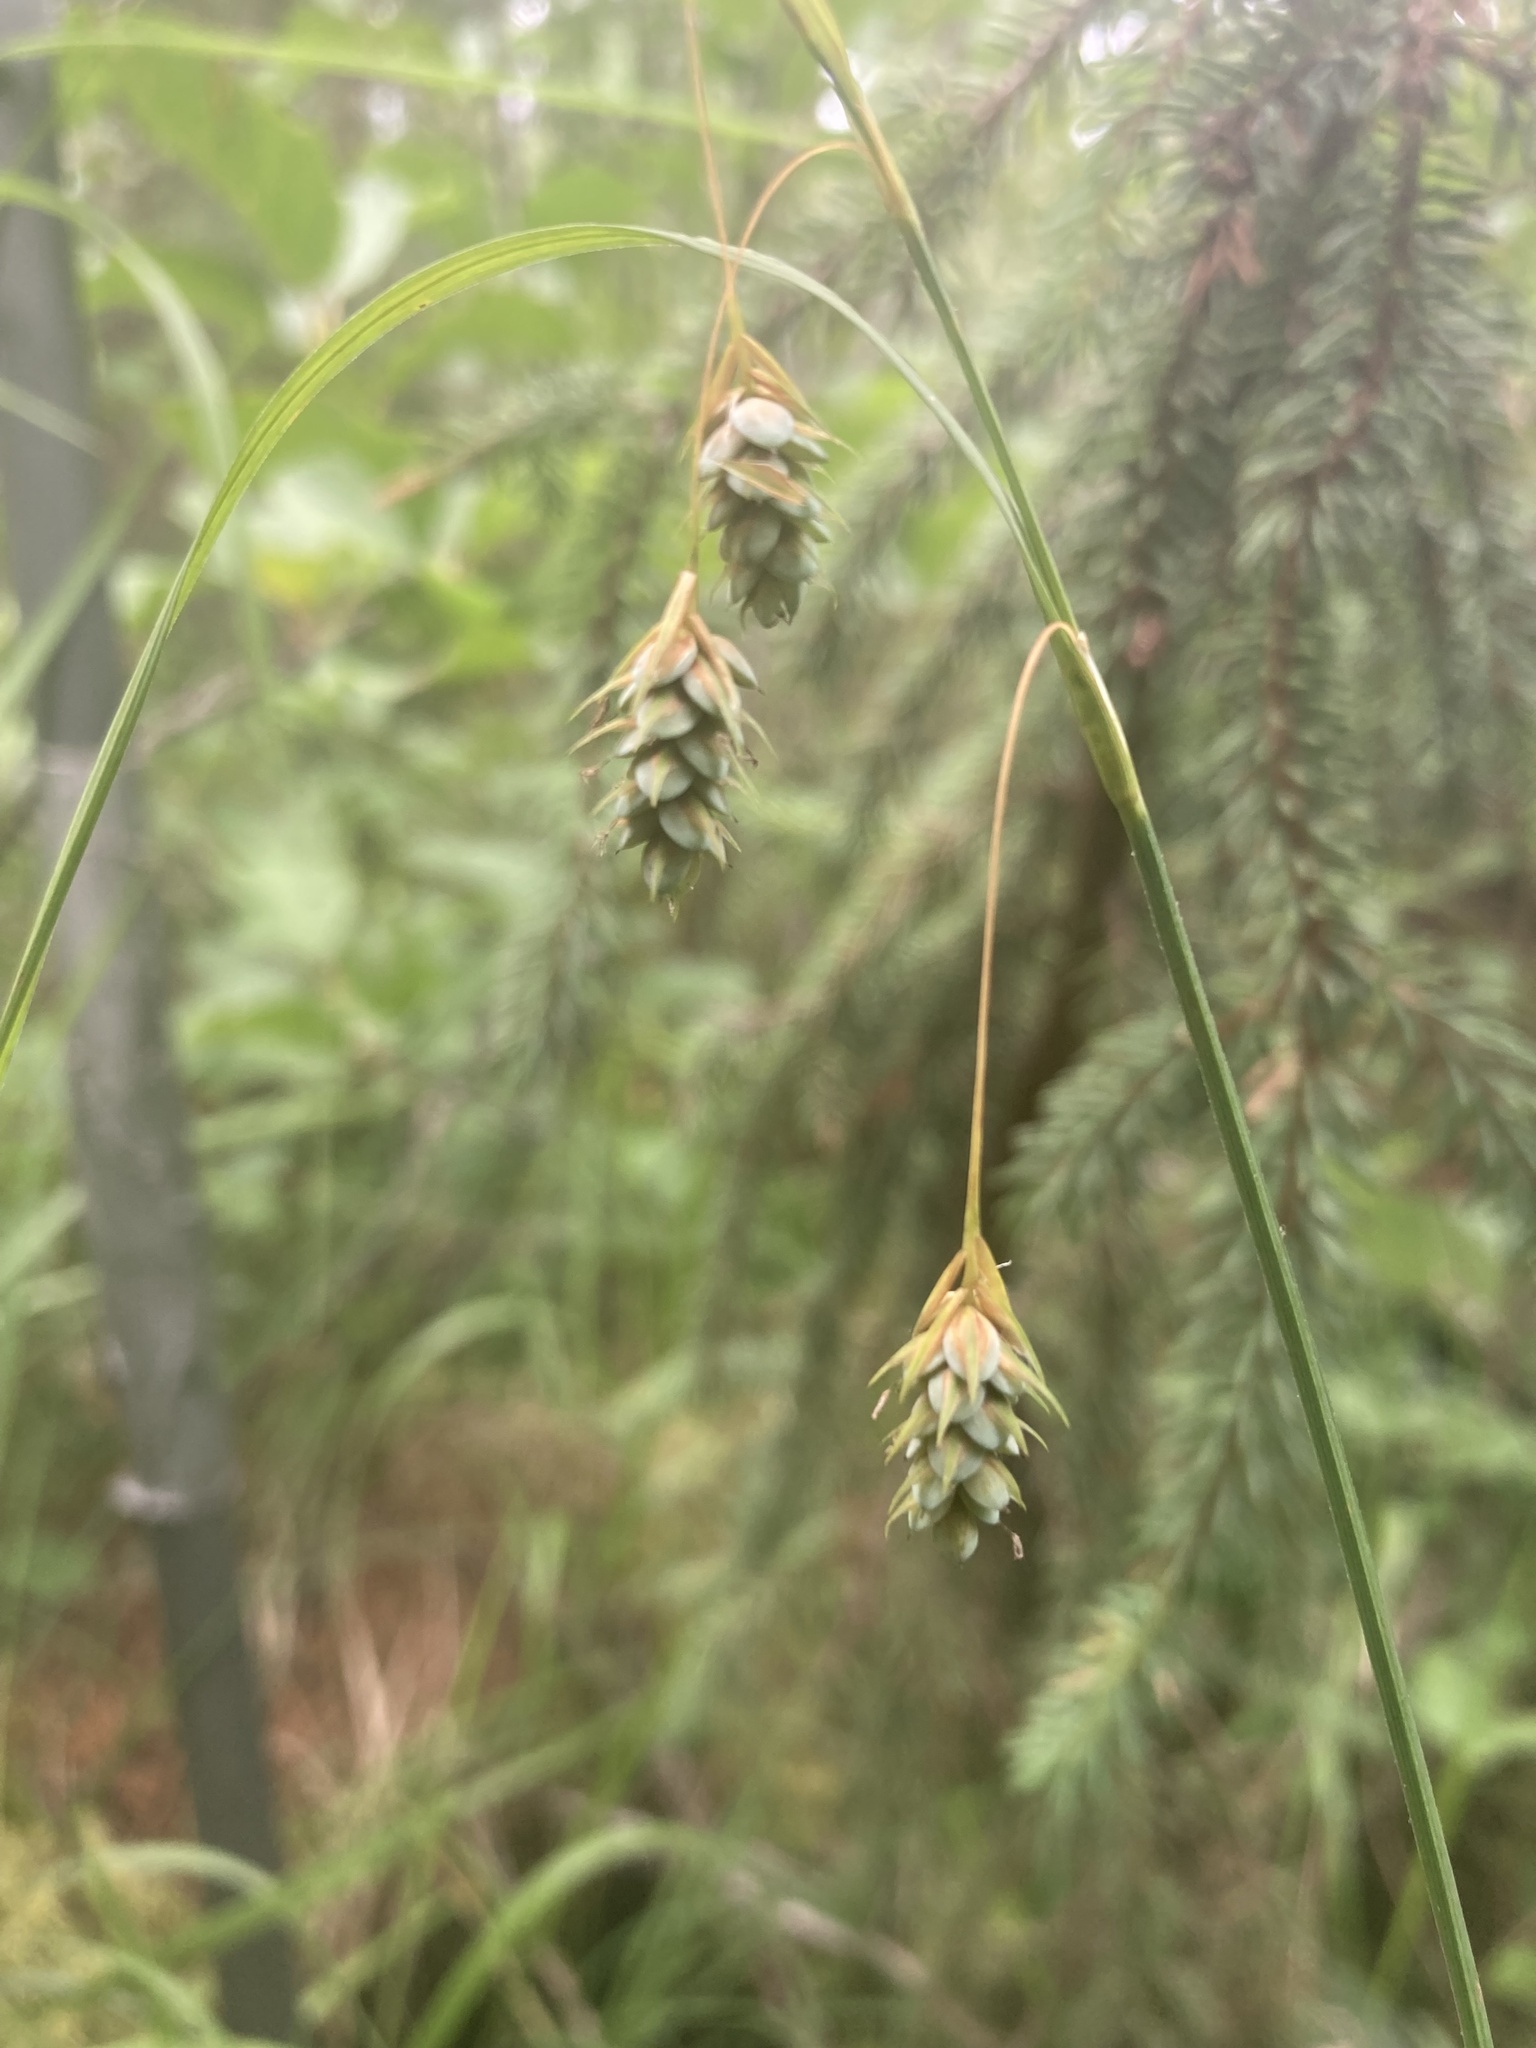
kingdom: Plantae
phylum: Tracheophyta
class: Liliopsida
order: Poales
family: Cyperaceae
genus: Carex
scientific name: Carex magellanica
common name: Bog sedge
